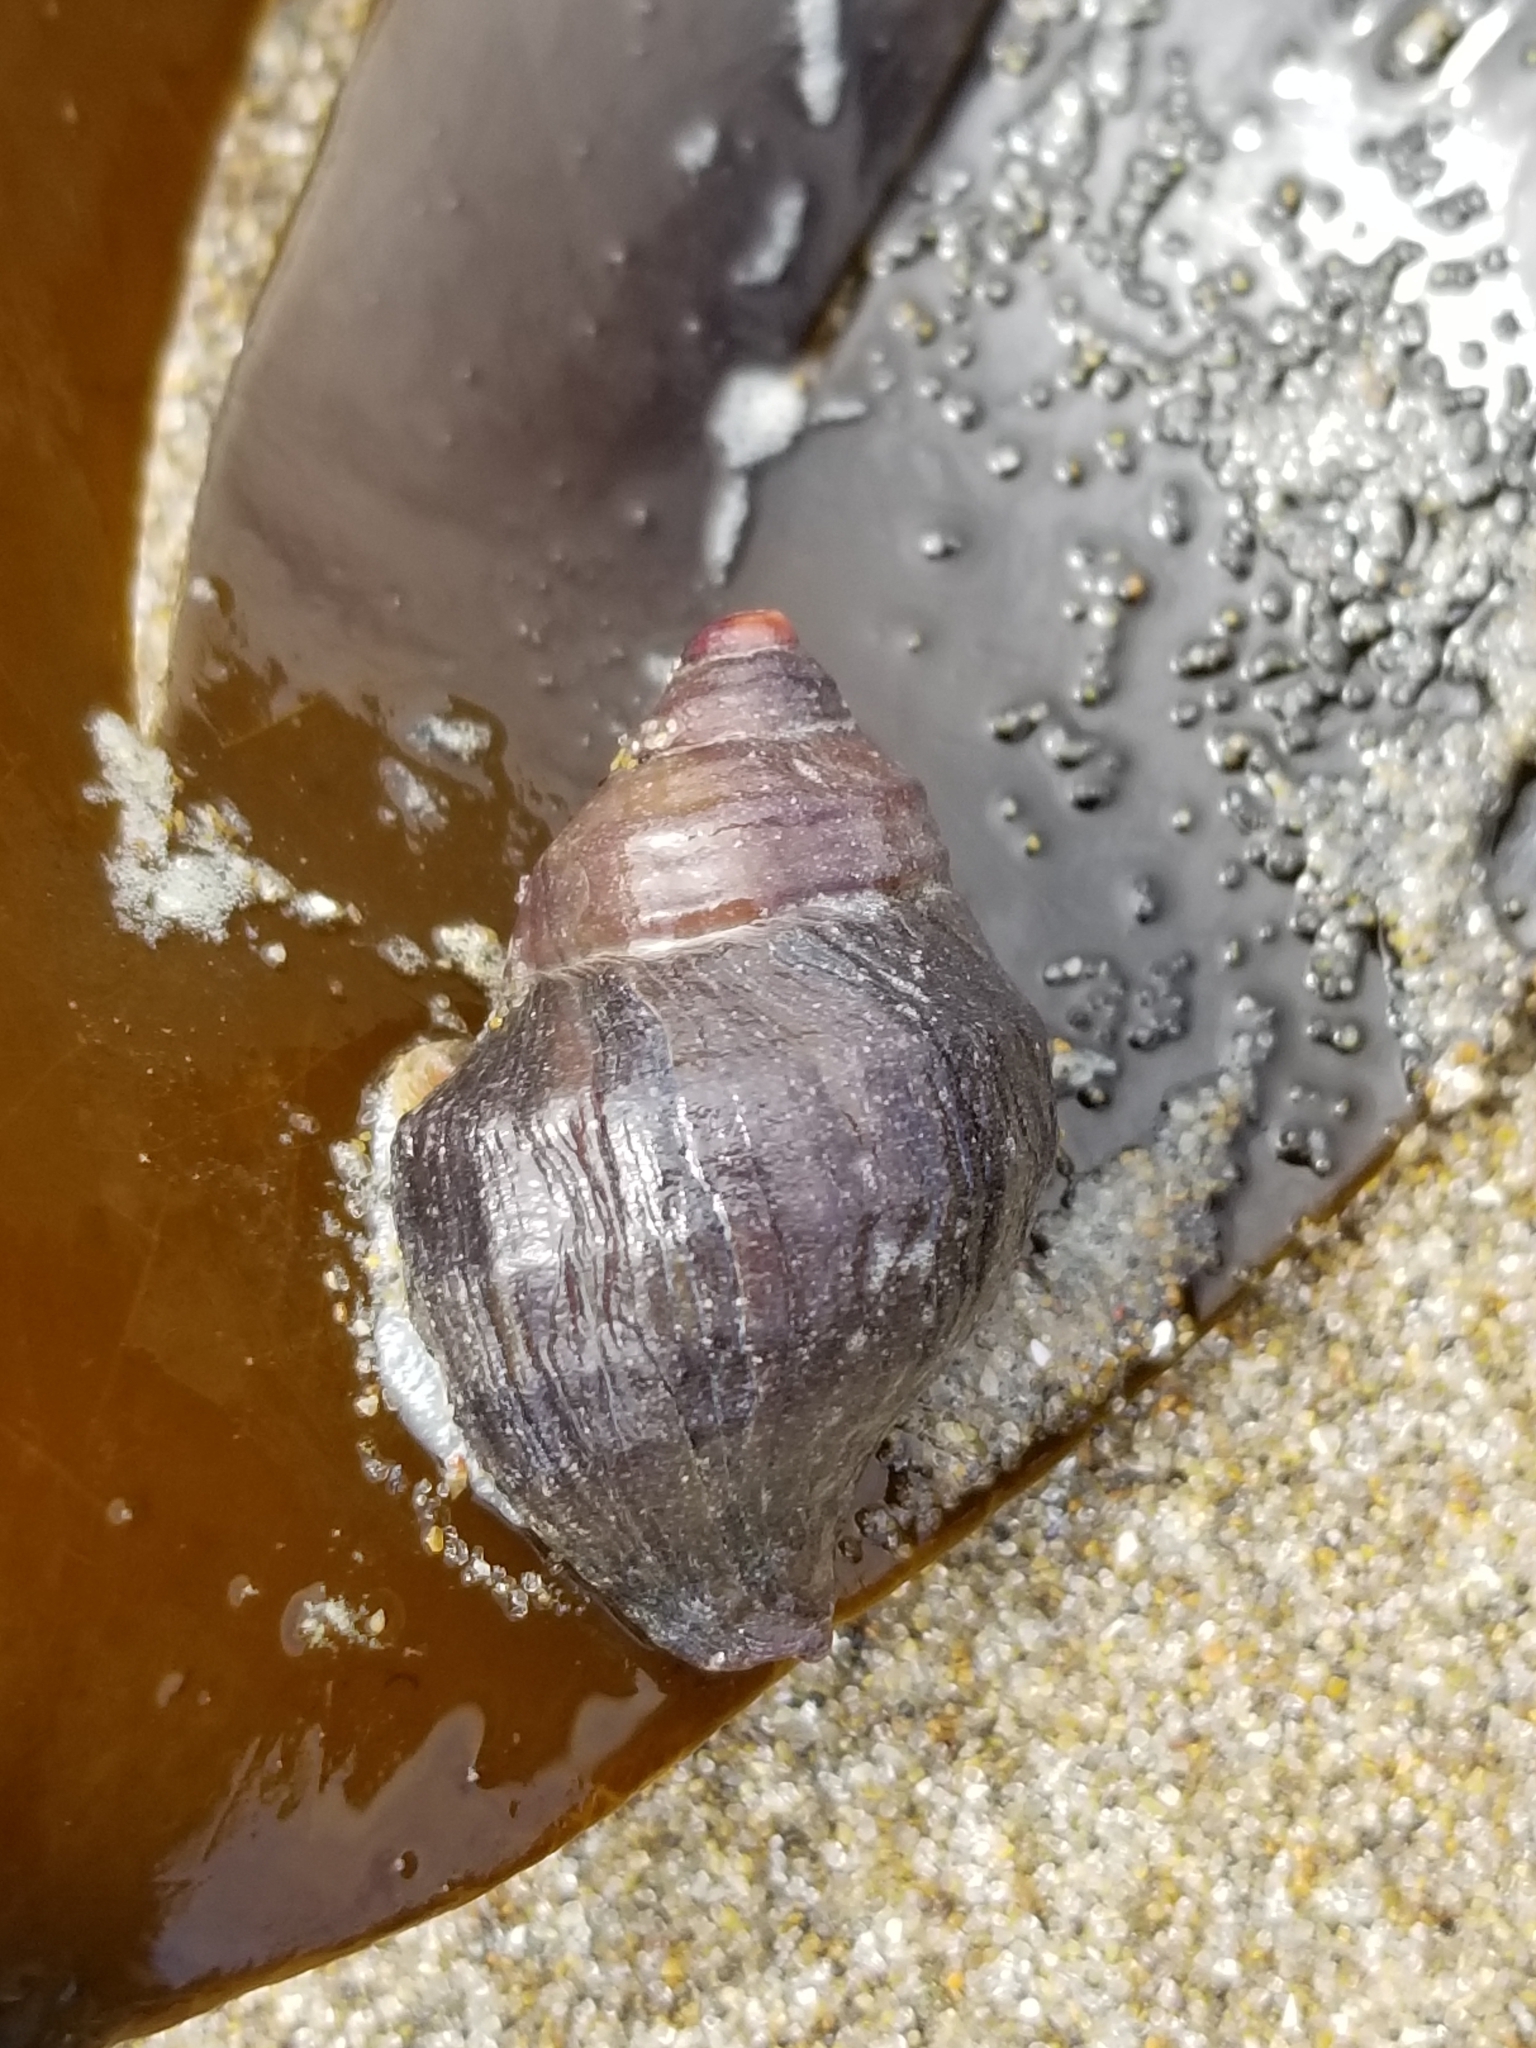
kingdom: Animalia
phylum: Mollusca
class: Gastropoda
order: Neogastropoda
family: Muricidae
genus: Nucella
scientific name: Nucella lamellosa
